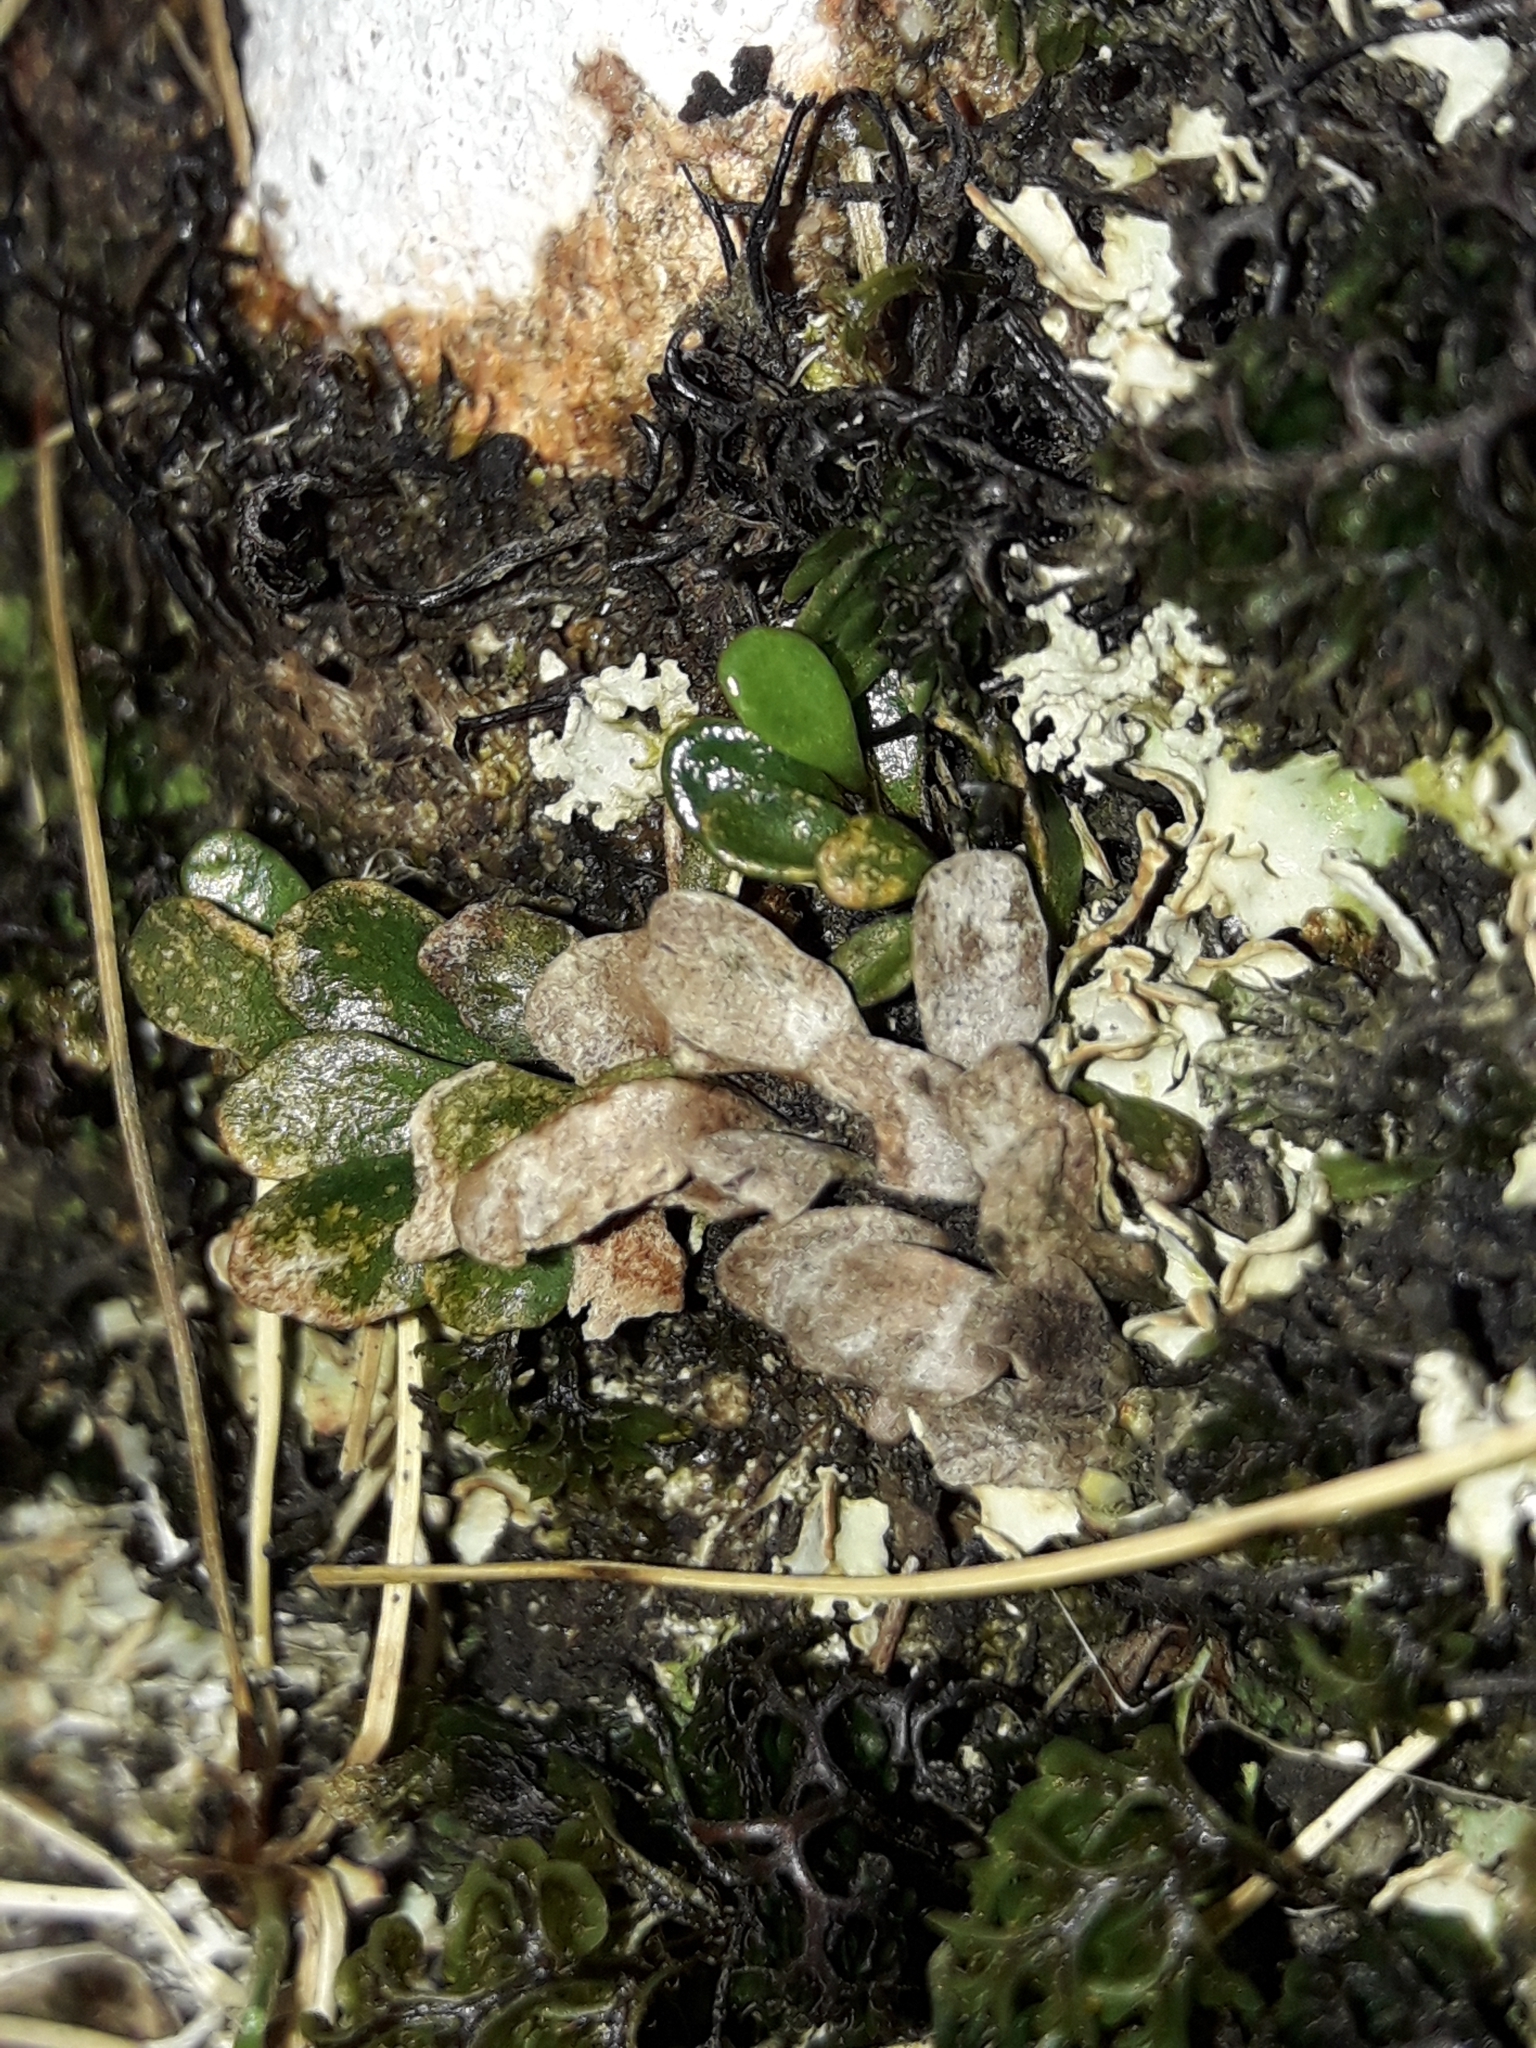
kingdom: Plantae
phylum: Tracheophyta
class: Polypodiopsida
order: Polypodiales
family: Polypodiaceae
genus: Notogrammitis
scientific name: Notogrammitis crassior
